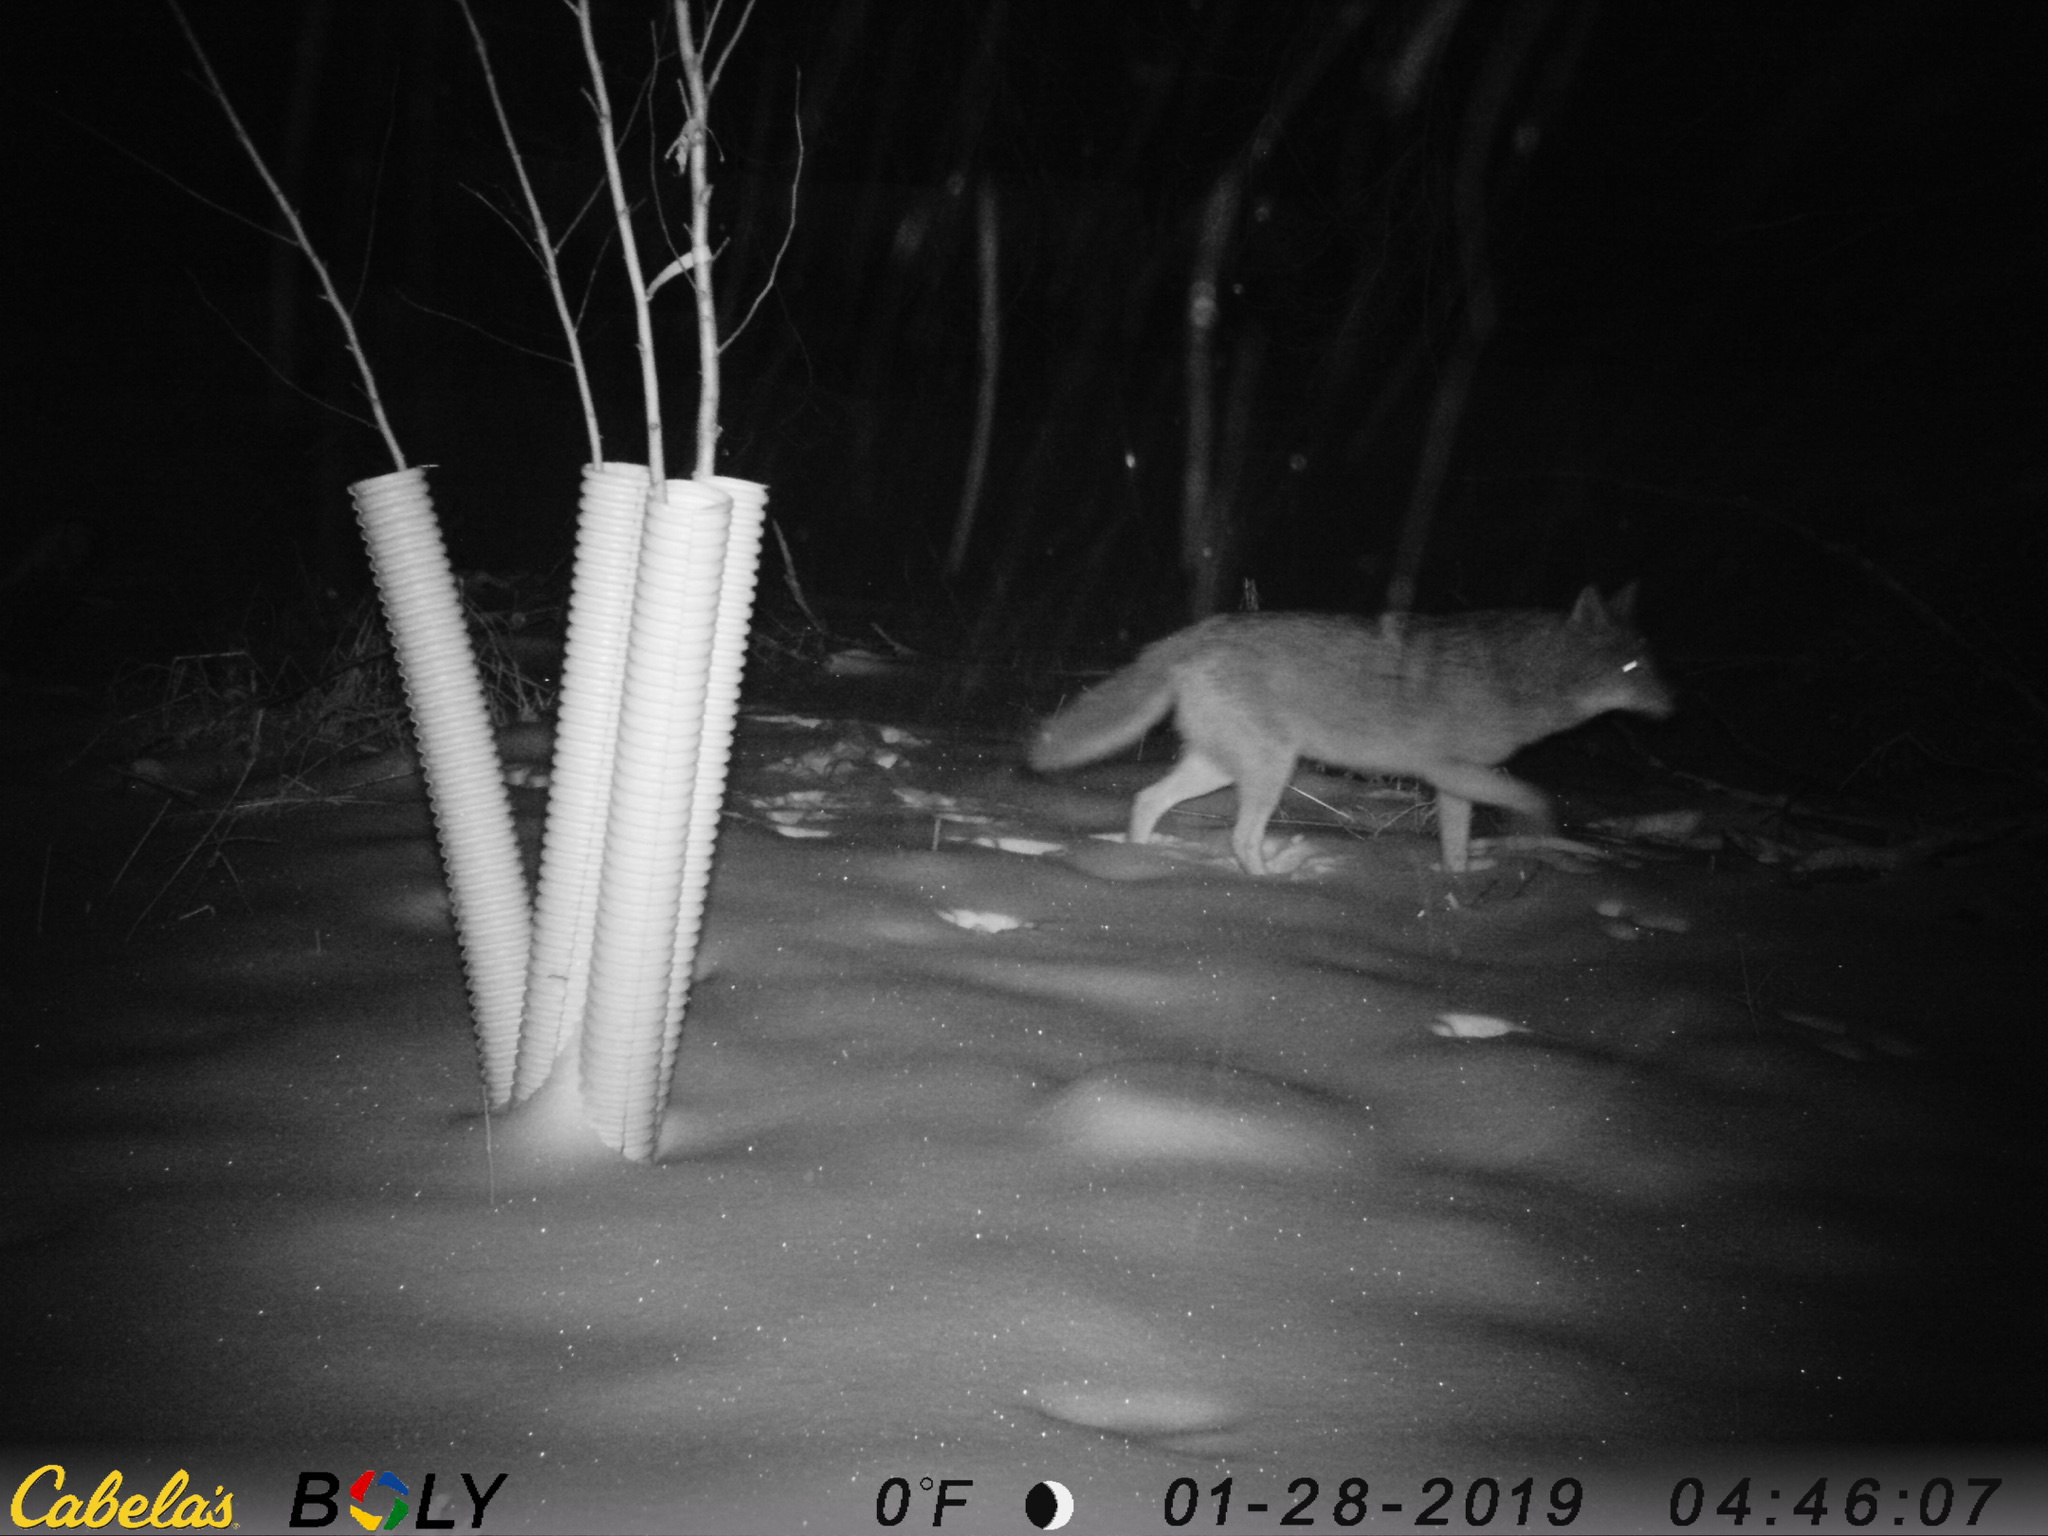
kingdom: Animalia
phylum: Chordata
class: Mammalia
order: Carnivora
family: Canidae
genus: Canis
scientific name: Canis latrans
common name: Coyote
